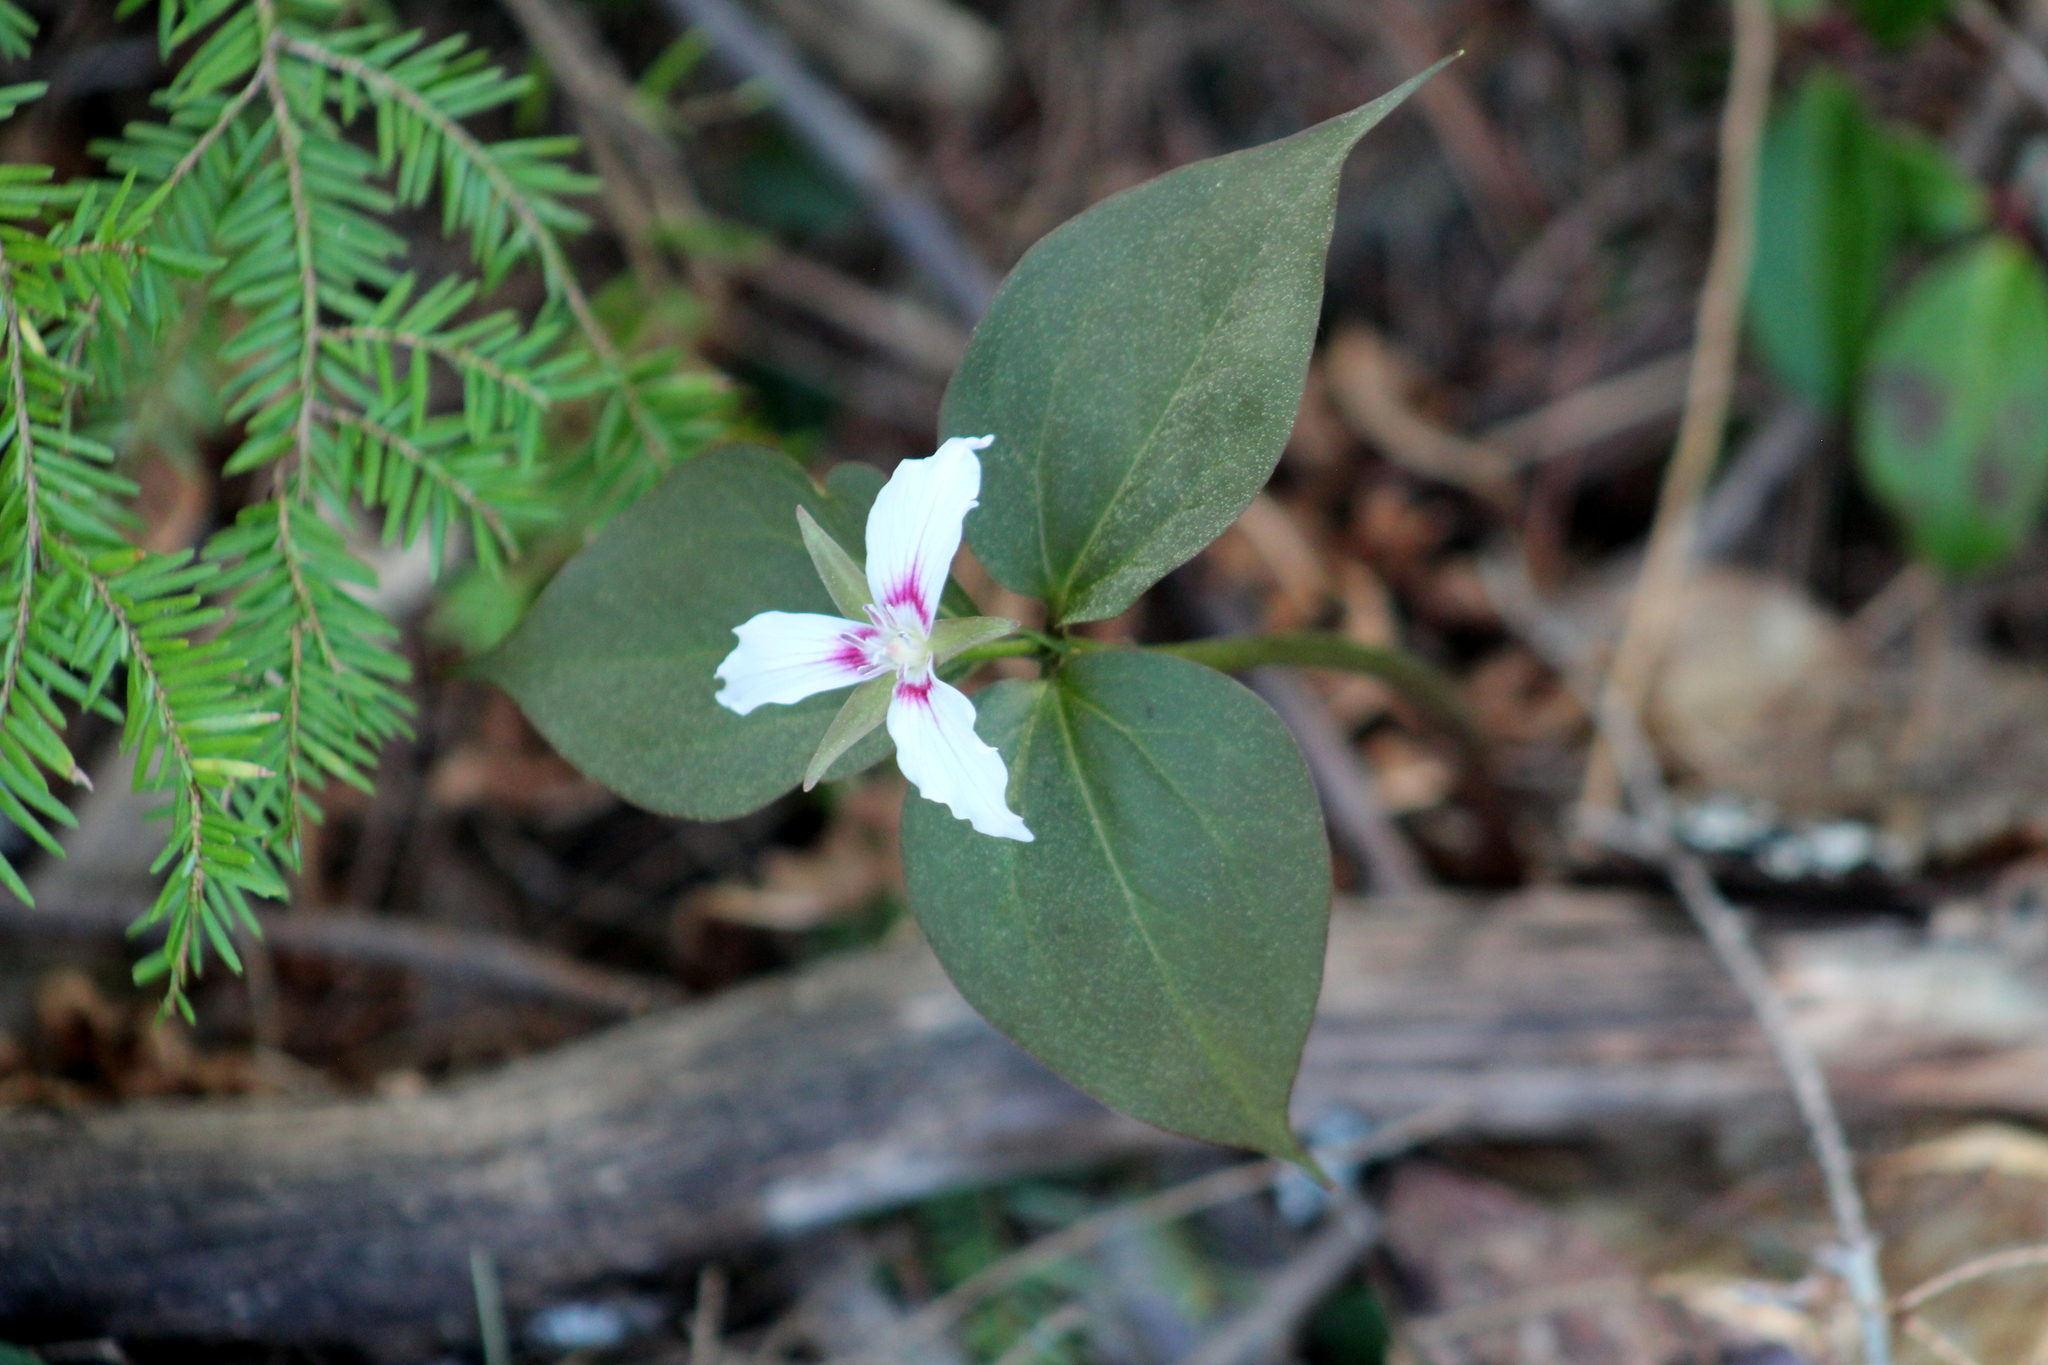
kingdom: Plantae
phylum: Tracheophyta
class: Liliopsida
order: Liliales
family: Melanthiaceae
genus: Trillium
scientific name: Trillium undulatum
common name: Paint trillium
